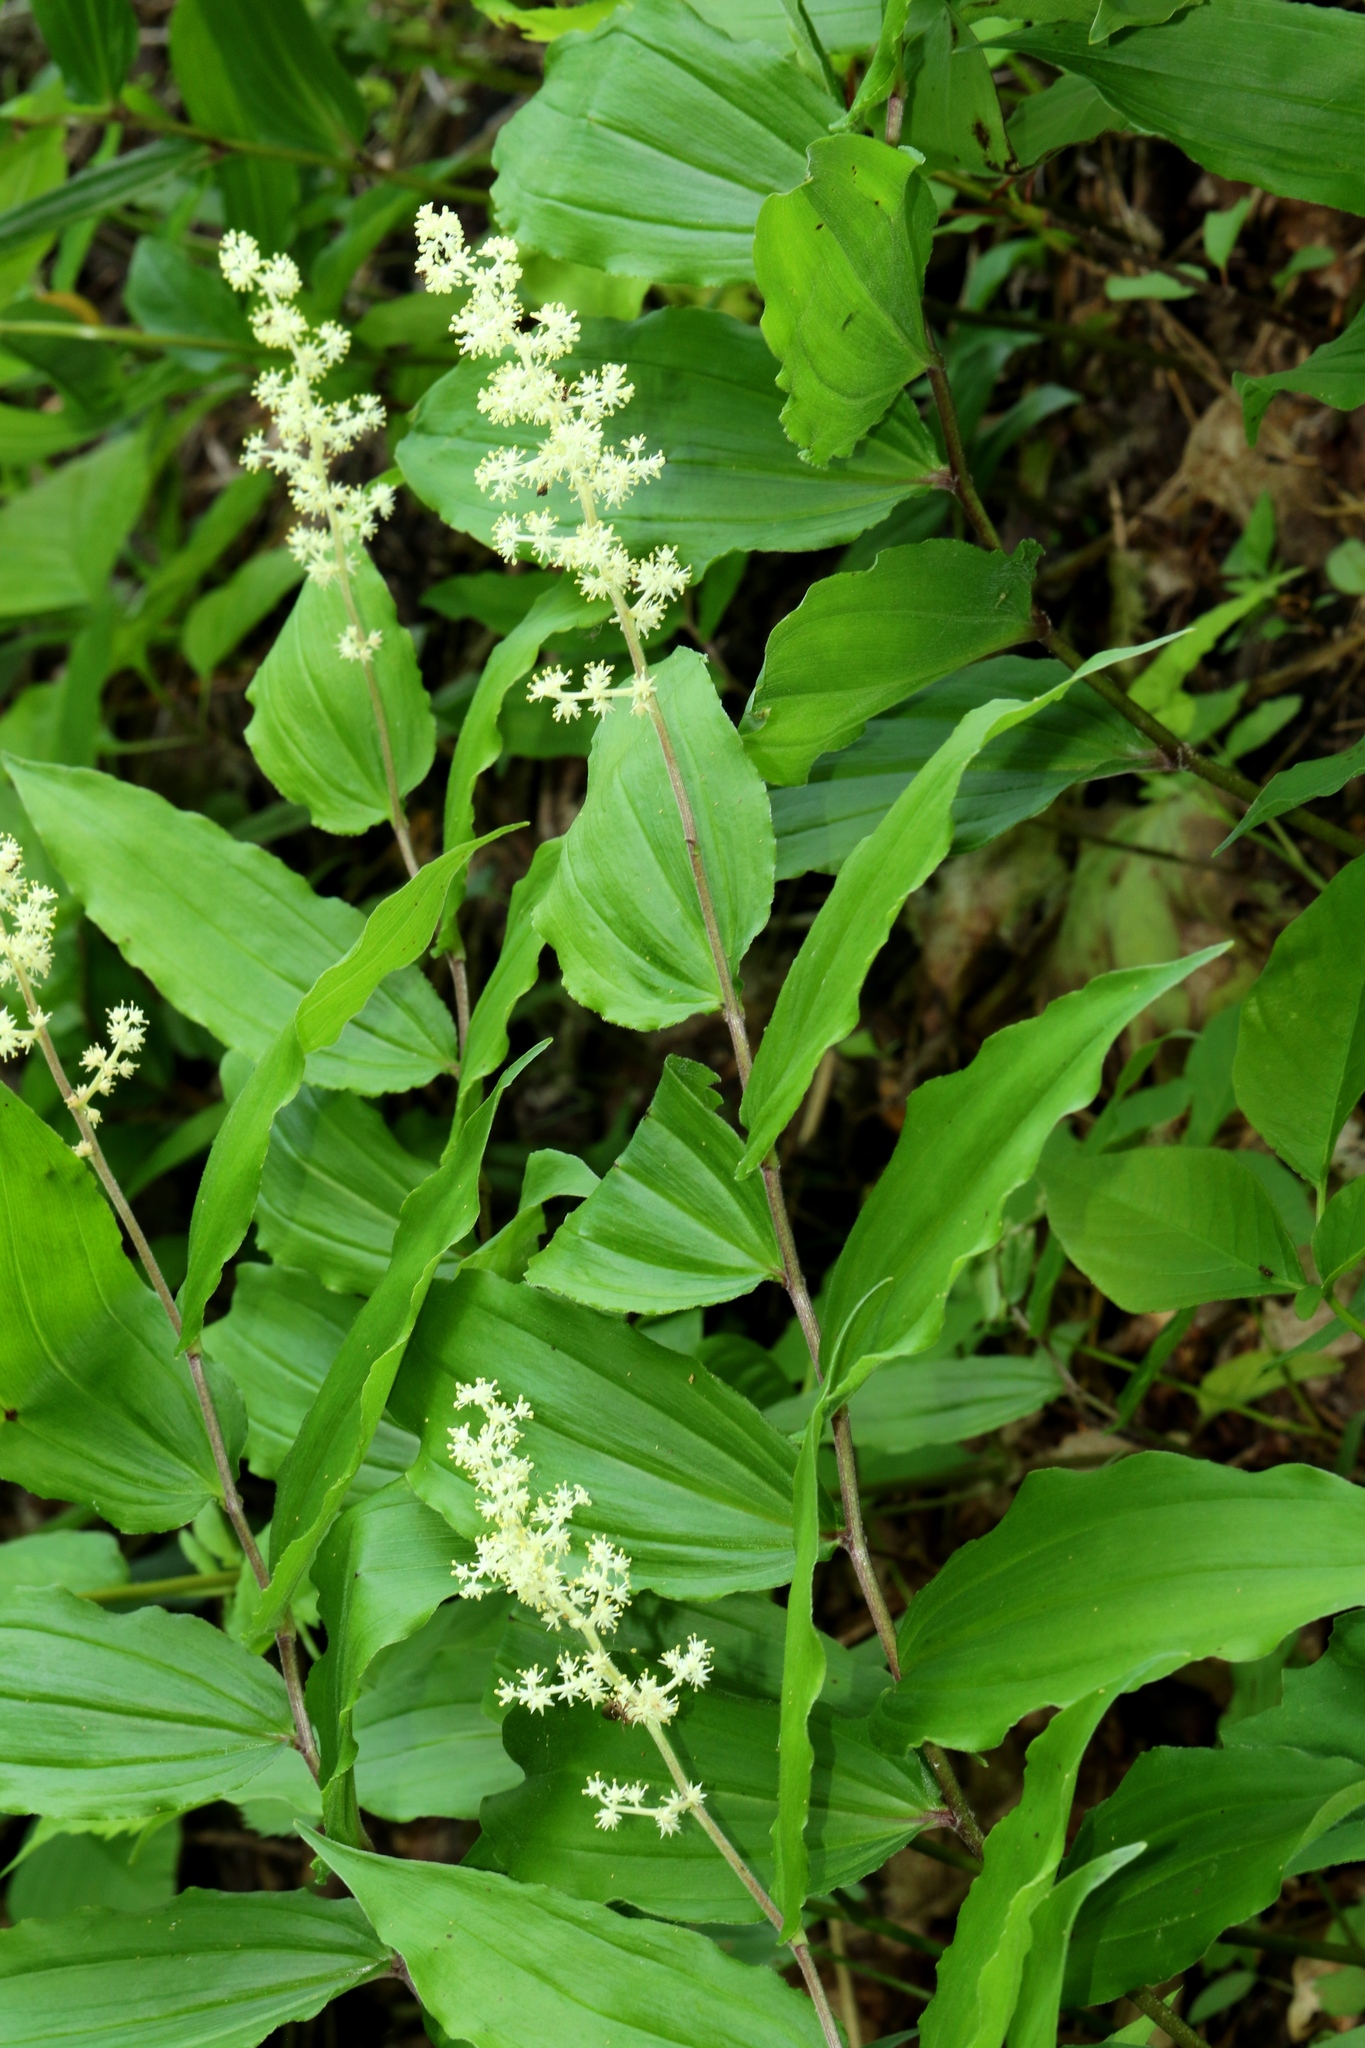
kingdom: Plantae
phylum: Tracheophyta
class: Liliopsida
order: Asparagales
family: Asparagaceae
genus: Maianthemum
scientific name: Maianthemum racemosum
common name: False spikenard
